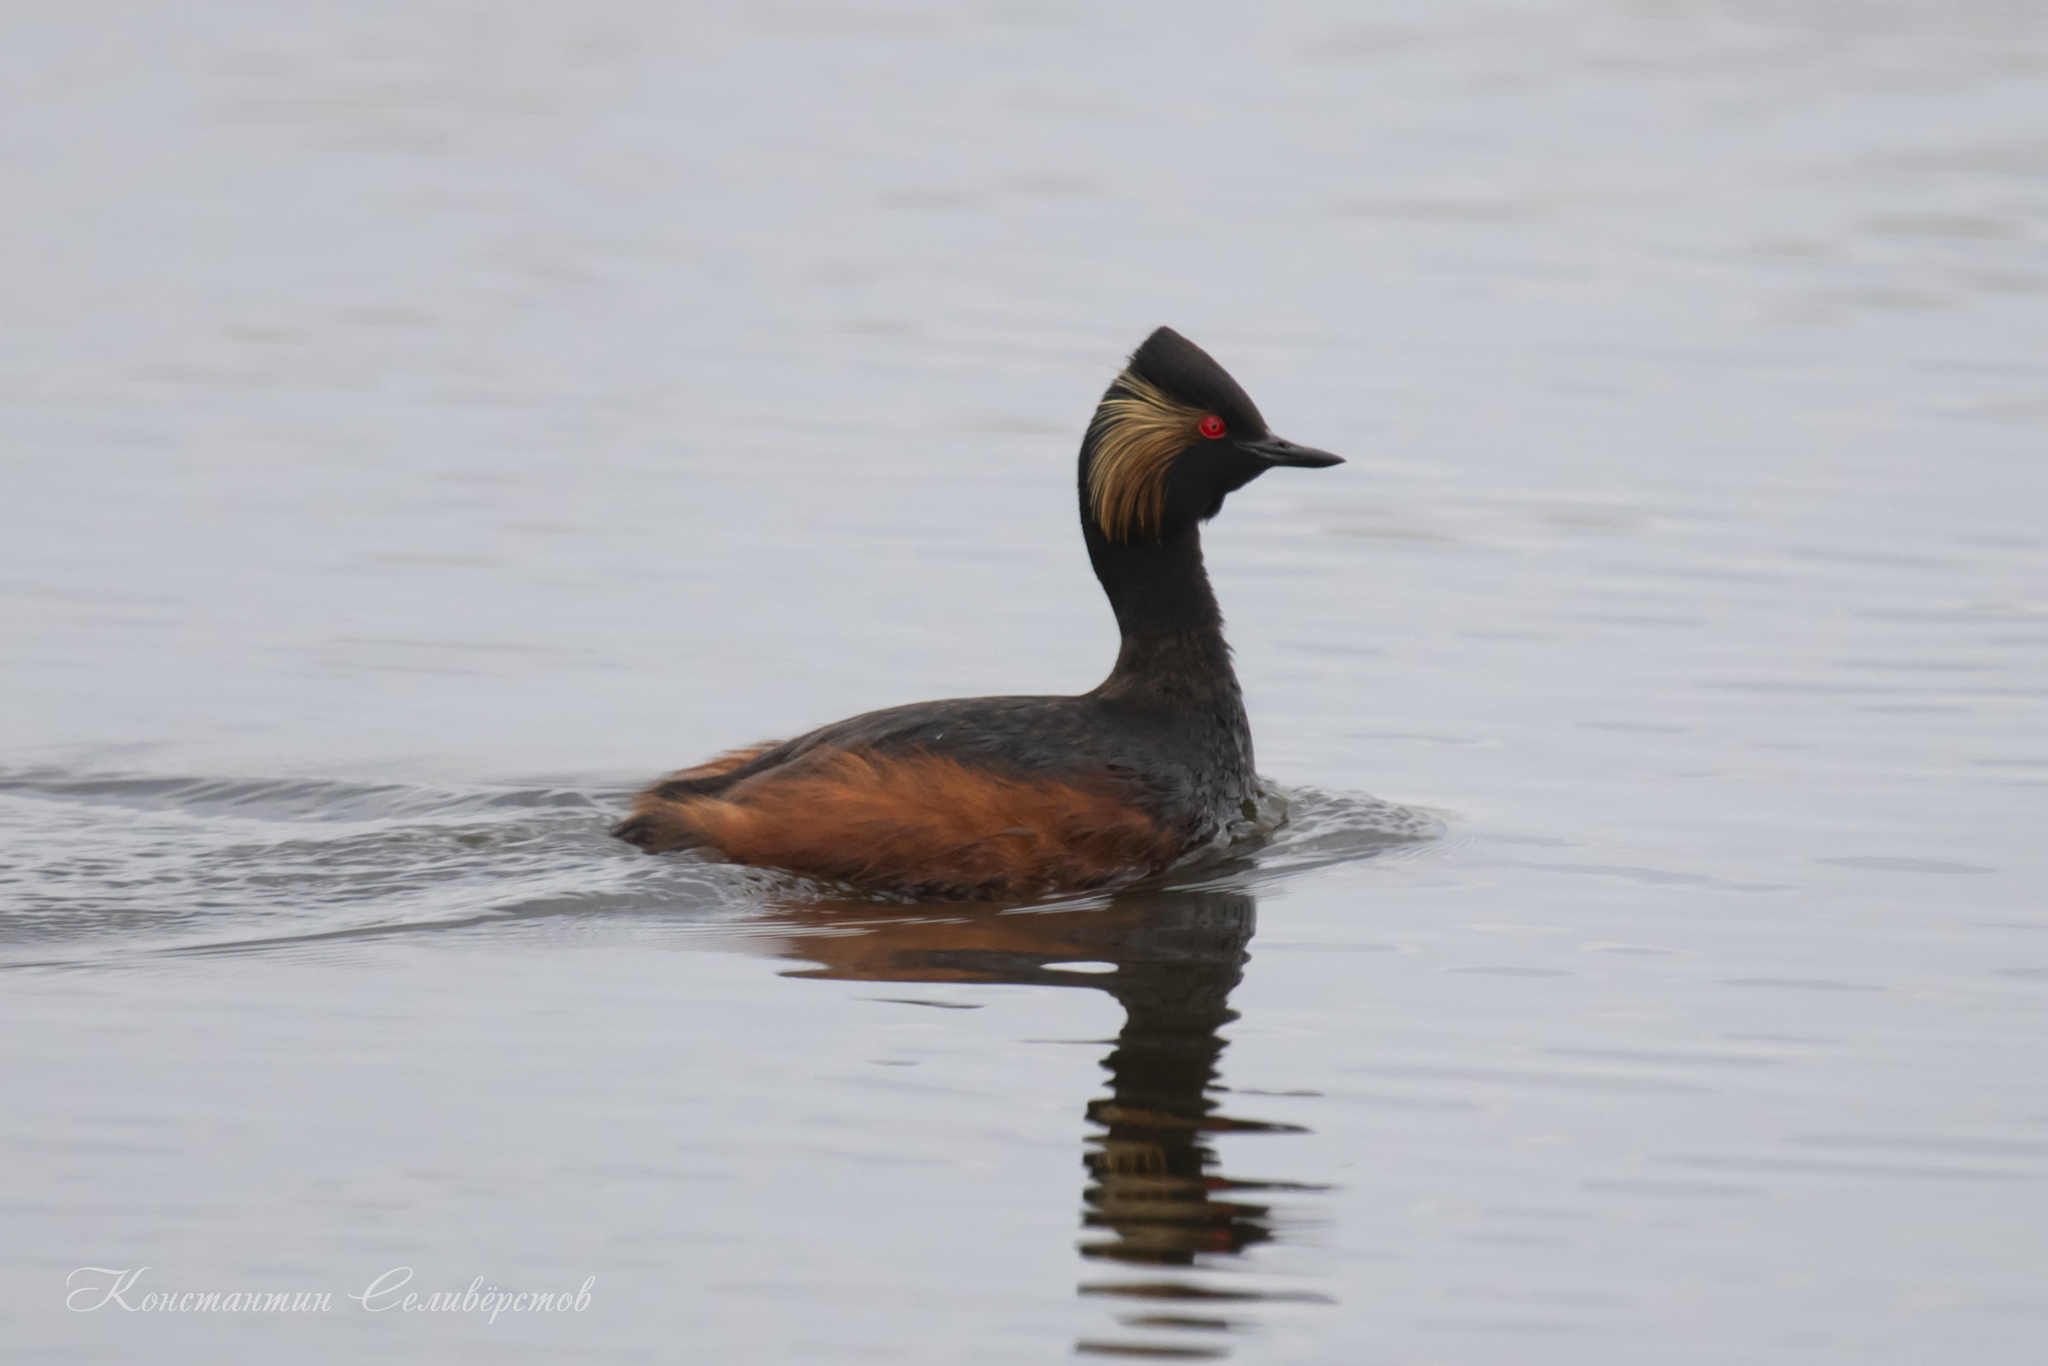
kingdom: Animalia
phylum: Chordata
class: Aves
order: Podicipediformes
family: Podicipedidae
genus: Podiceps
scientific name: Podiceps nigricollis
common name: Black-necked grebe
